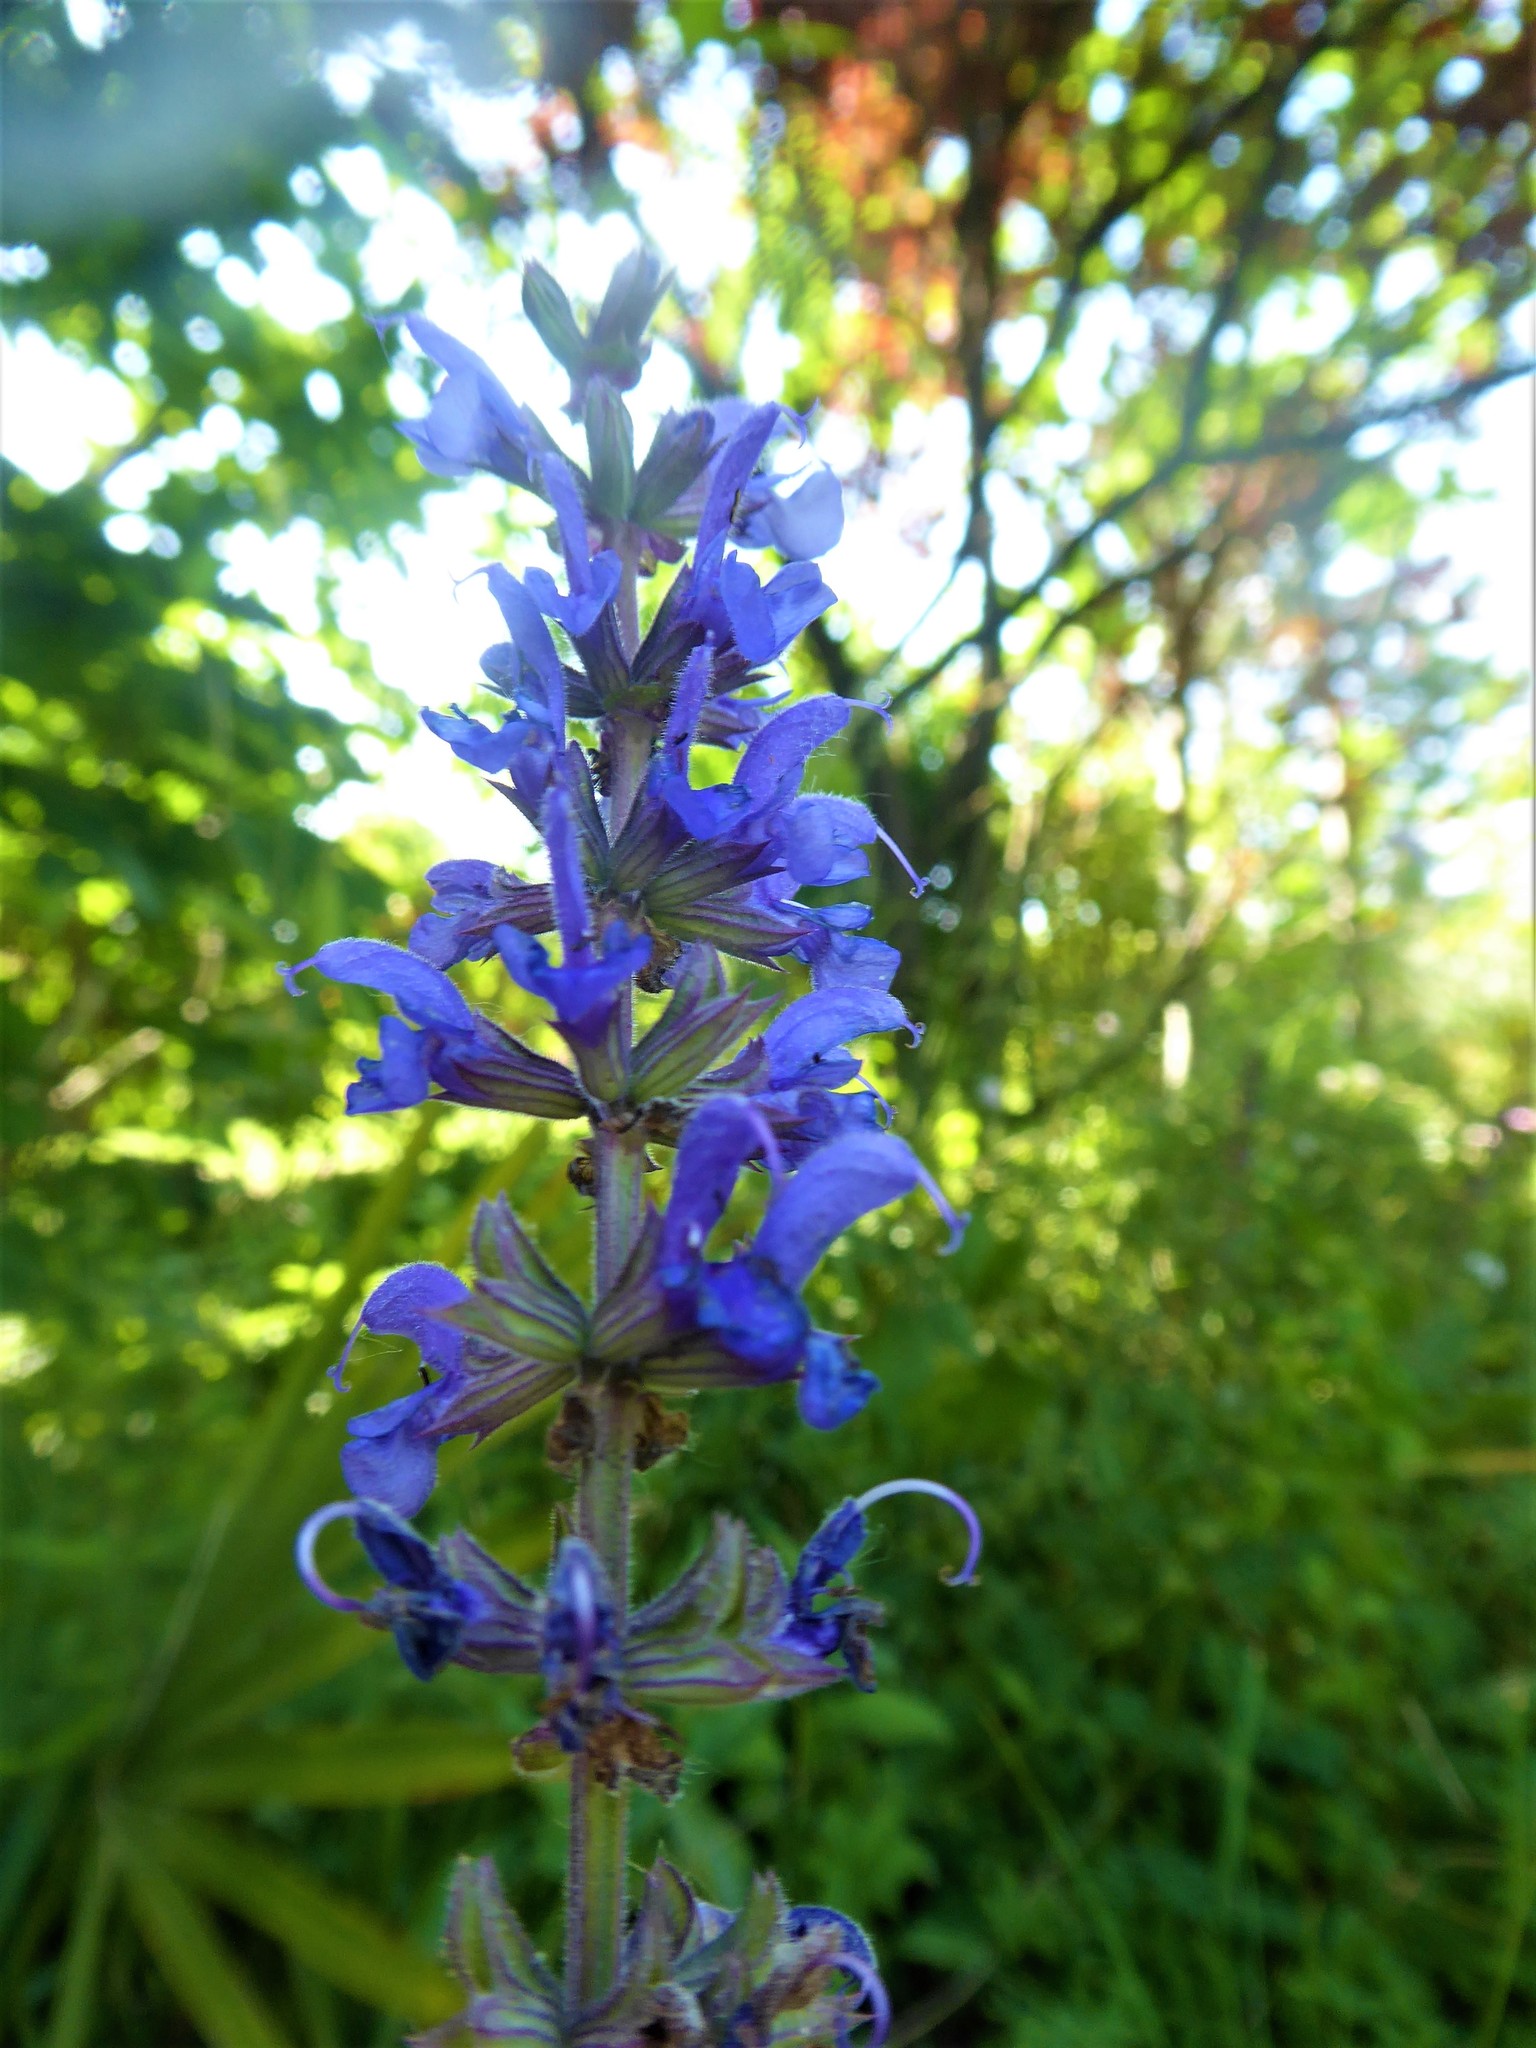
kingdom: Plantae
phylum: Tracheophyta
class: Magnoliopsida
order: Lamiales
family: Lamiaceae
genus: Salvia
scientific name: Salvia pratensis
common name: Meadow sage
